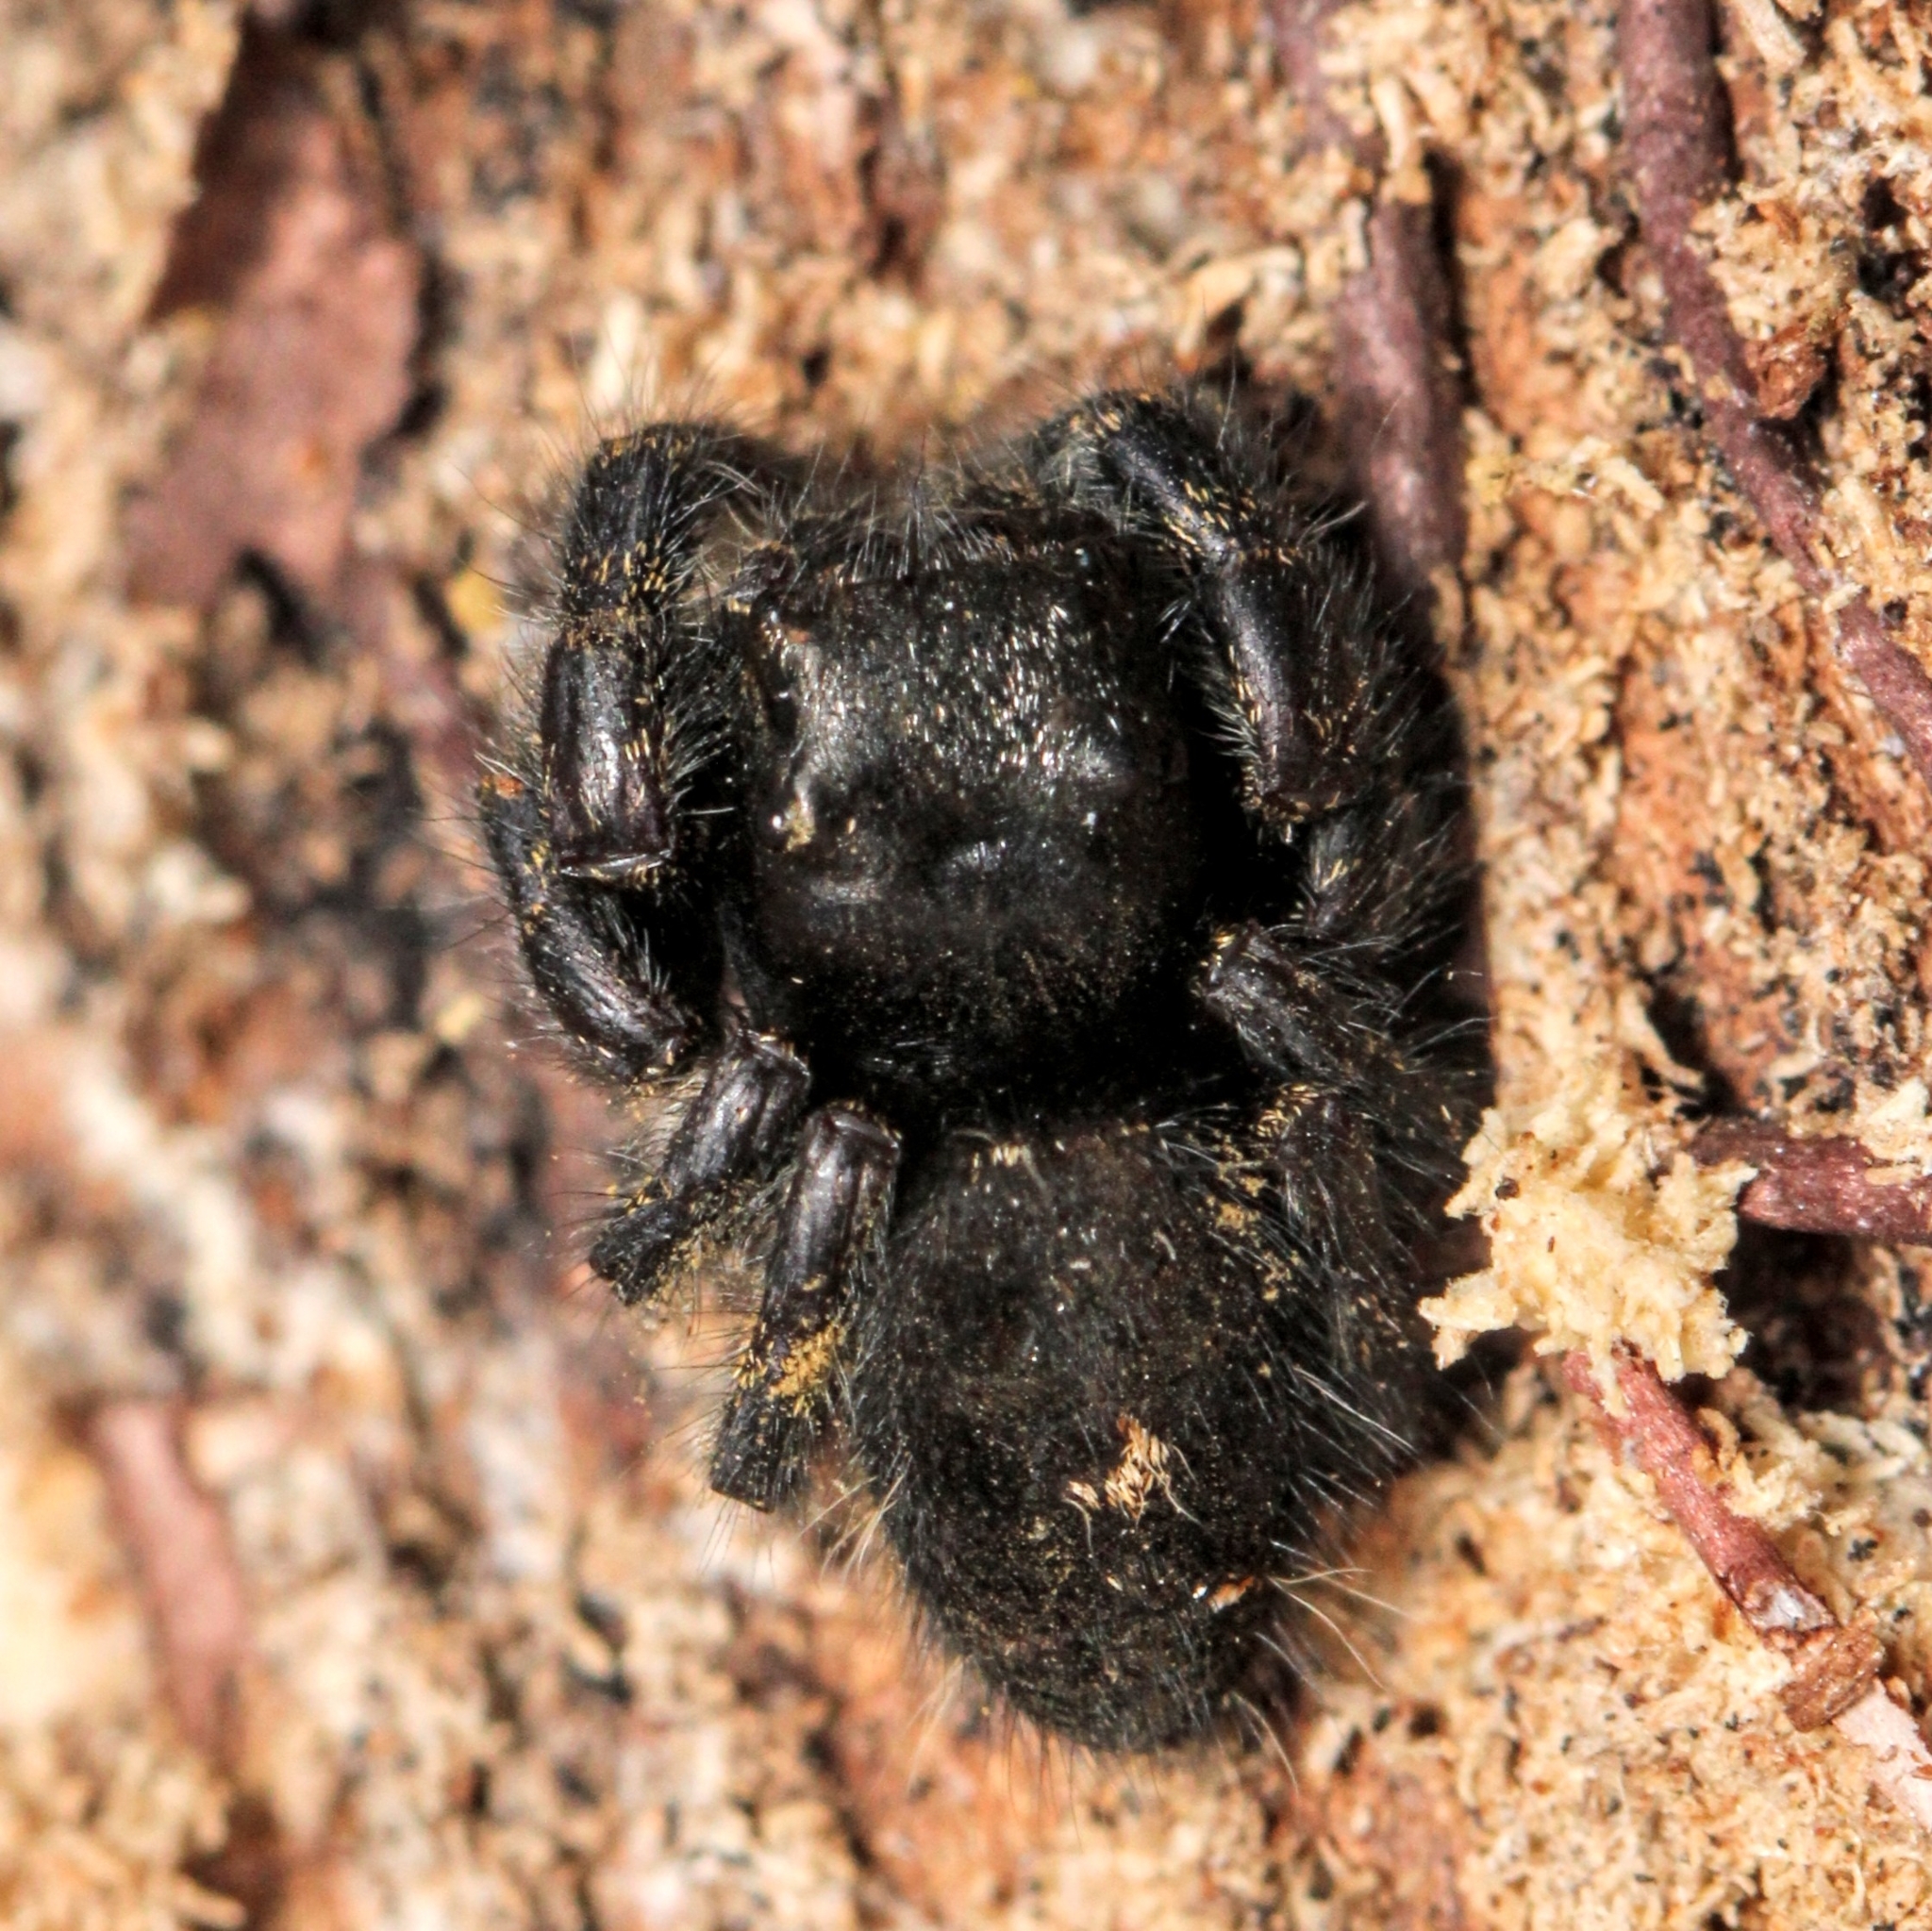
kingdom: Animalia
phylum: Arthropoda
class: Arachnida
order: Araneae
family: Salticidae
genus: Phidippus
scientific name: Phidippus audax
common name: Bold jumper
